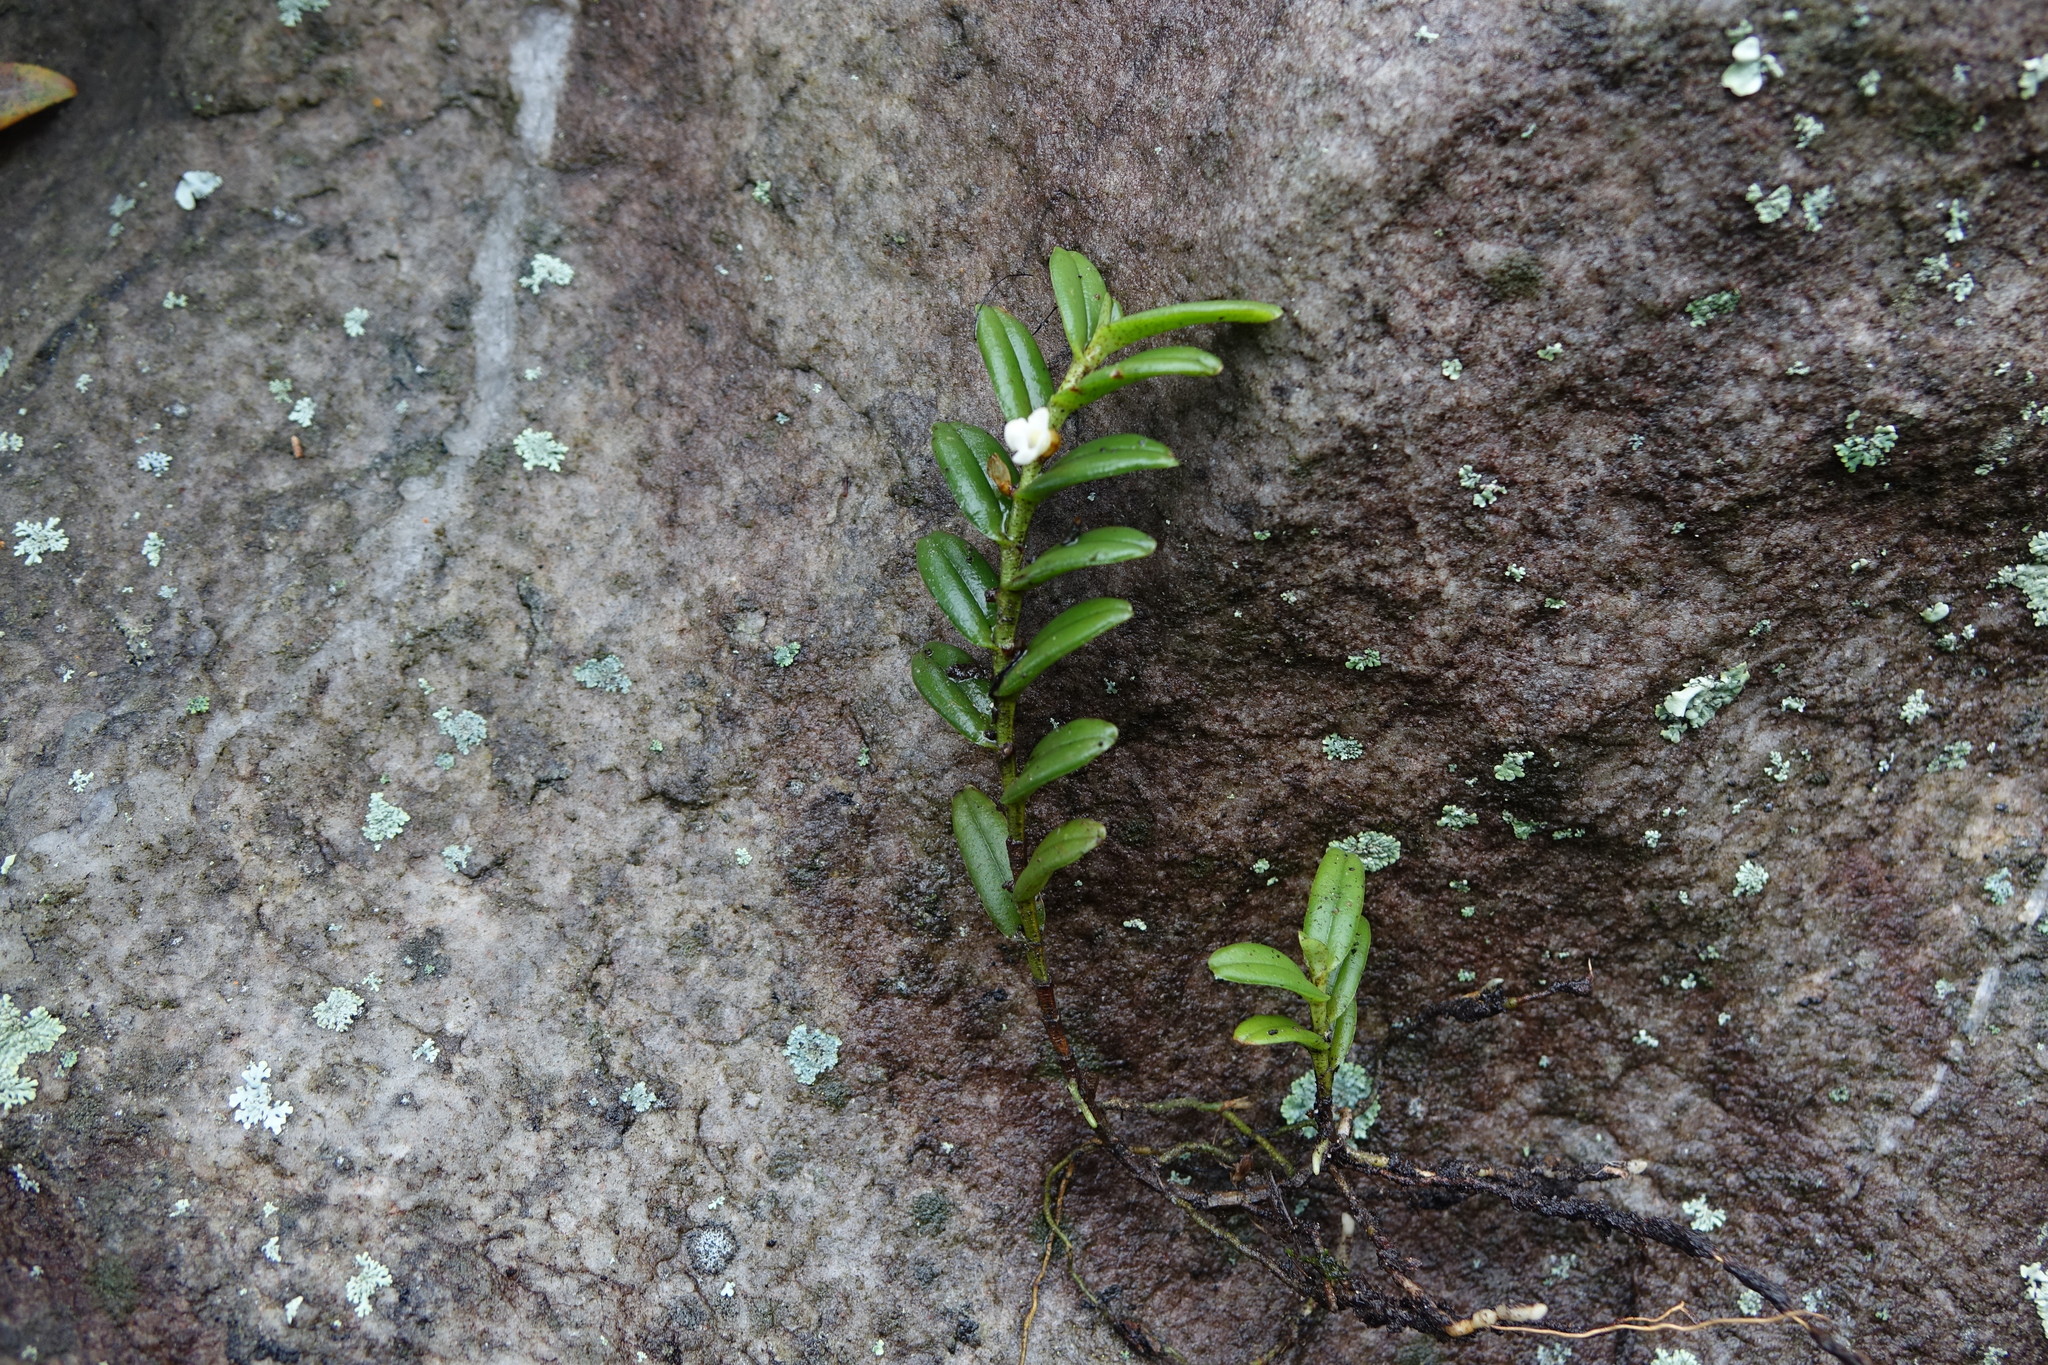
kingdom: Plantae
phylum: Tracheophyta
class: Liliopsida
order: Asparagales
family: Orchidaceae
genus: Angraecum
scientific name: Angraecum pectinatum
